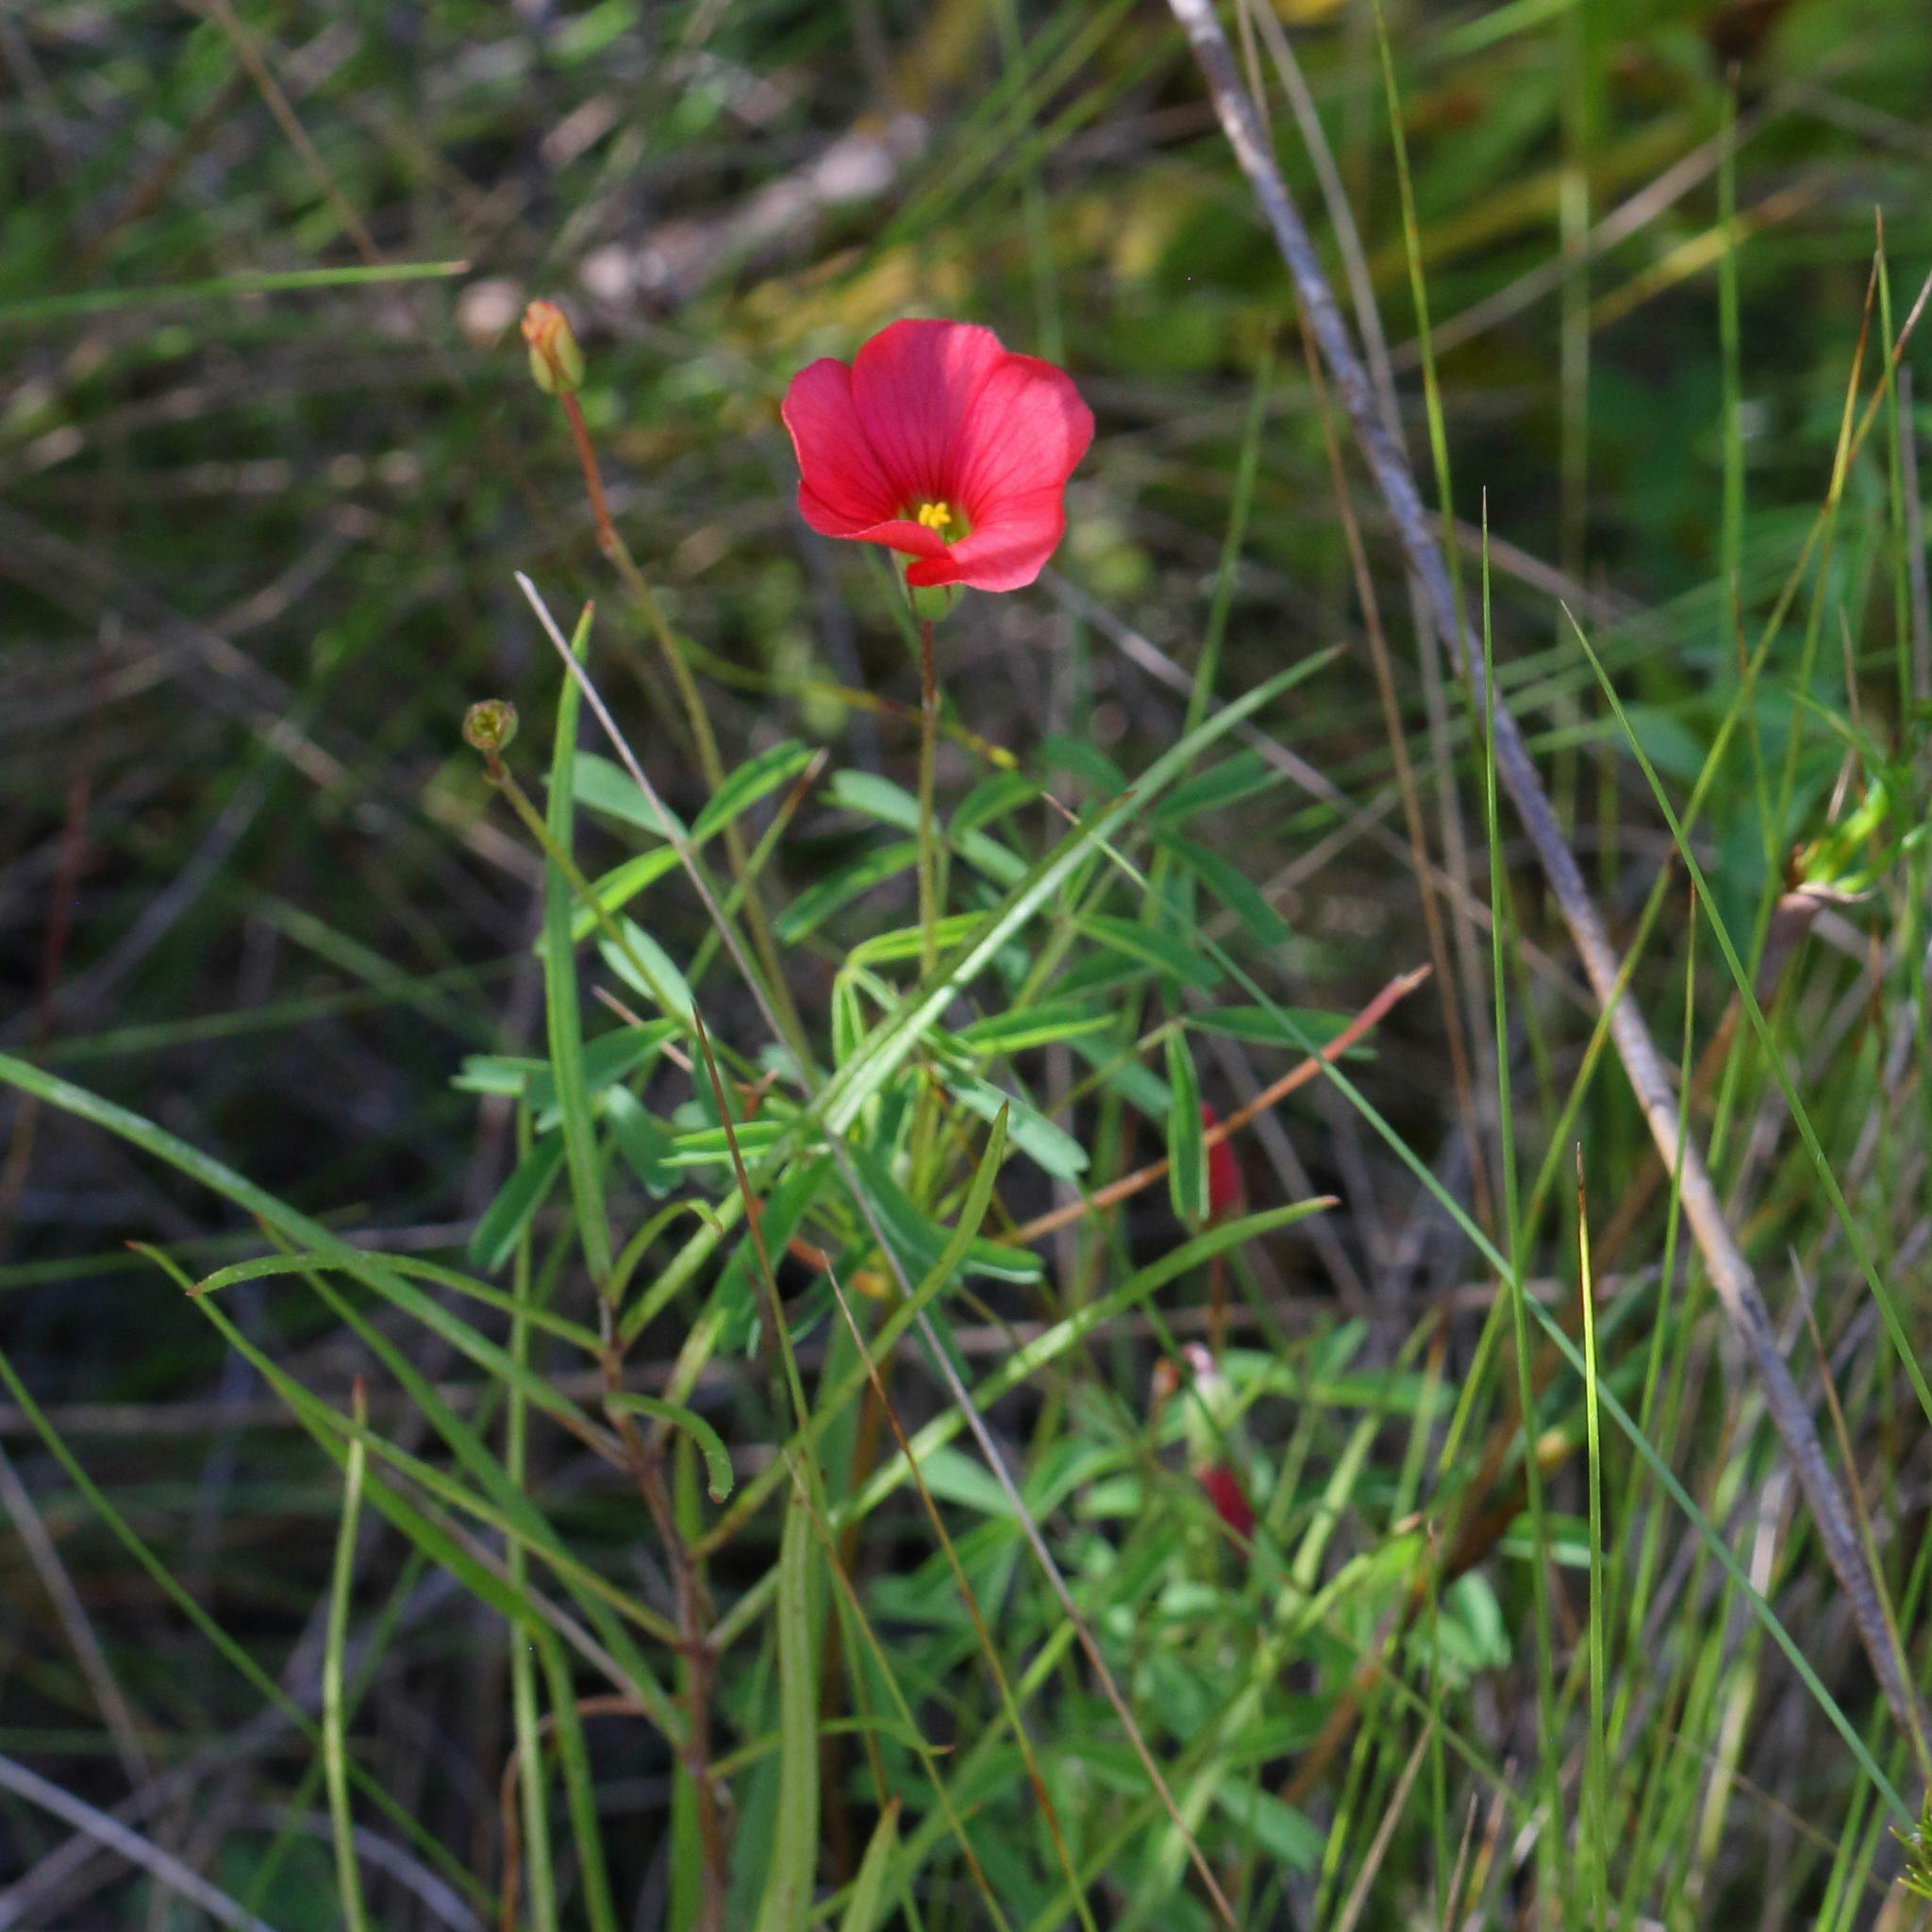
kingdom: Plantae
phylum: Tracheophyta
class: Magnoliopsida
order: Oxalidales
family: Oxalidaceae
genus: Oxalis
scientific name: Oxalis pendulifolia
